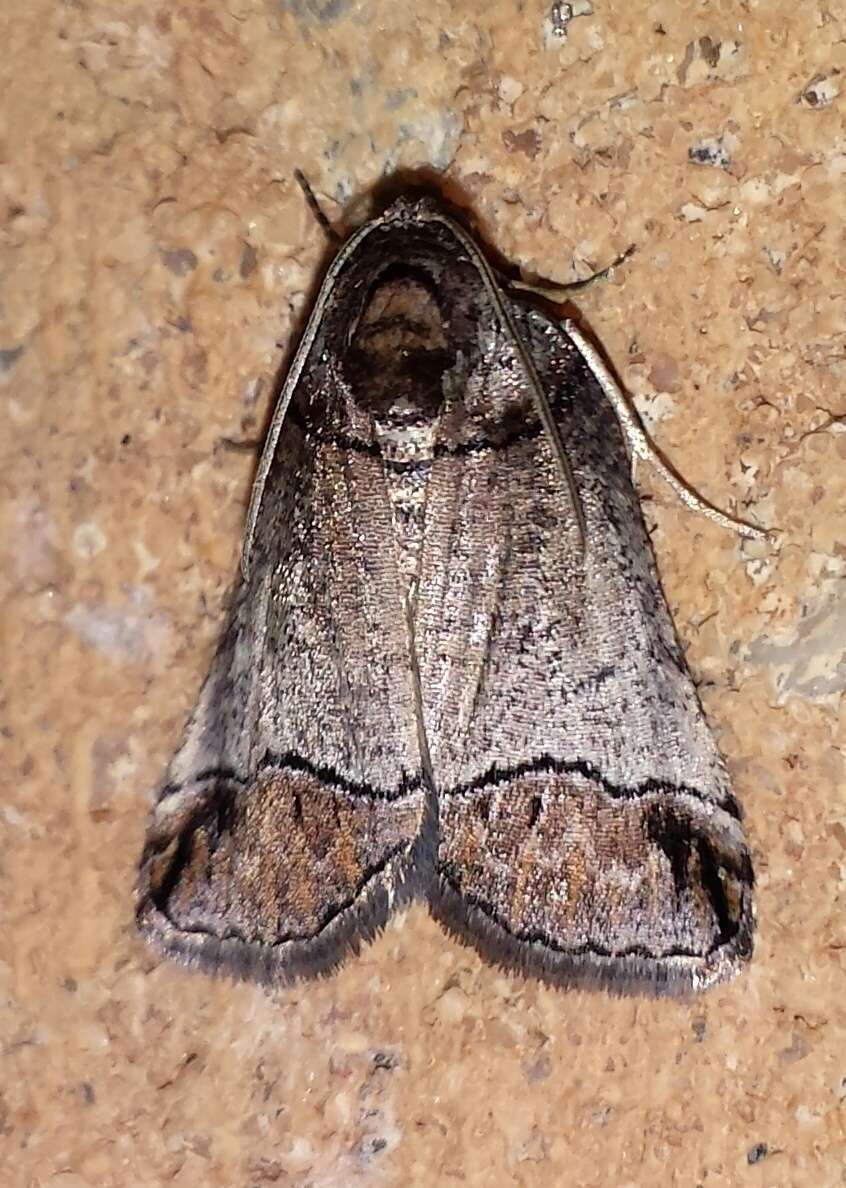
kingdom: Animalia
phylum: Arthropoda
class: Insecta
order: Lepidoptera
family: Geometridae
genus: Drymoptila
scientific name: Drymoptila temenitis
